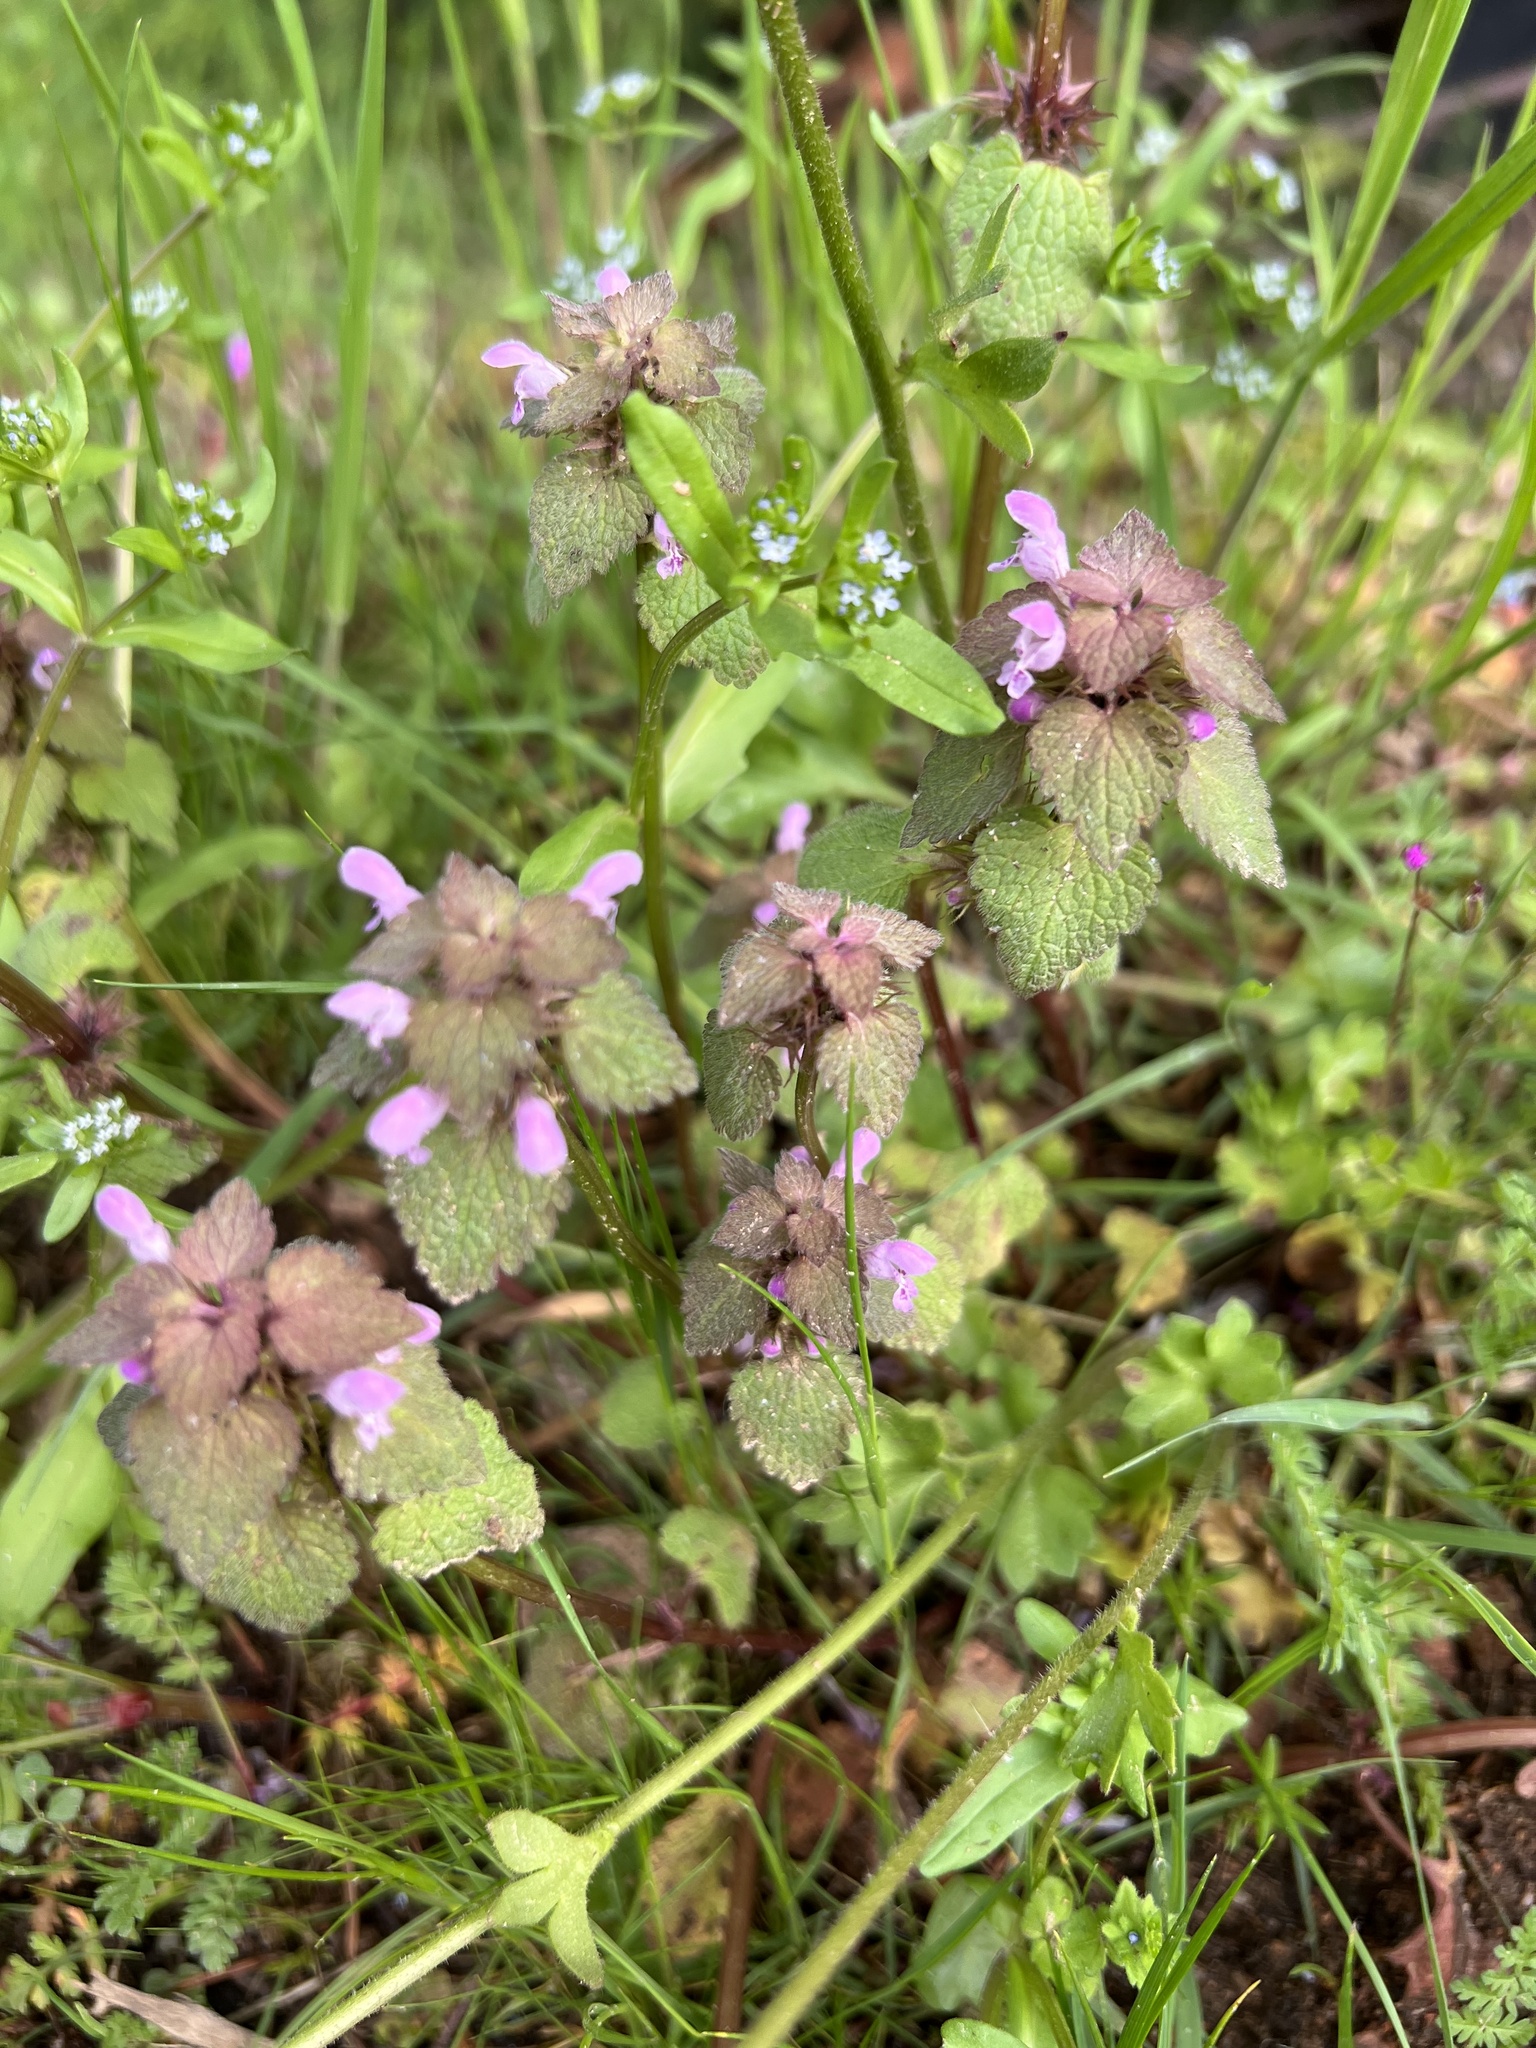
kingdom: Plantae
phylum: Tracheophyta
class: Magnoliopsida
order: Lamiales
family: Lamiaceae
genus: Lamium
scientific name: Lamium purpureum
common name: Red dead-nettle
